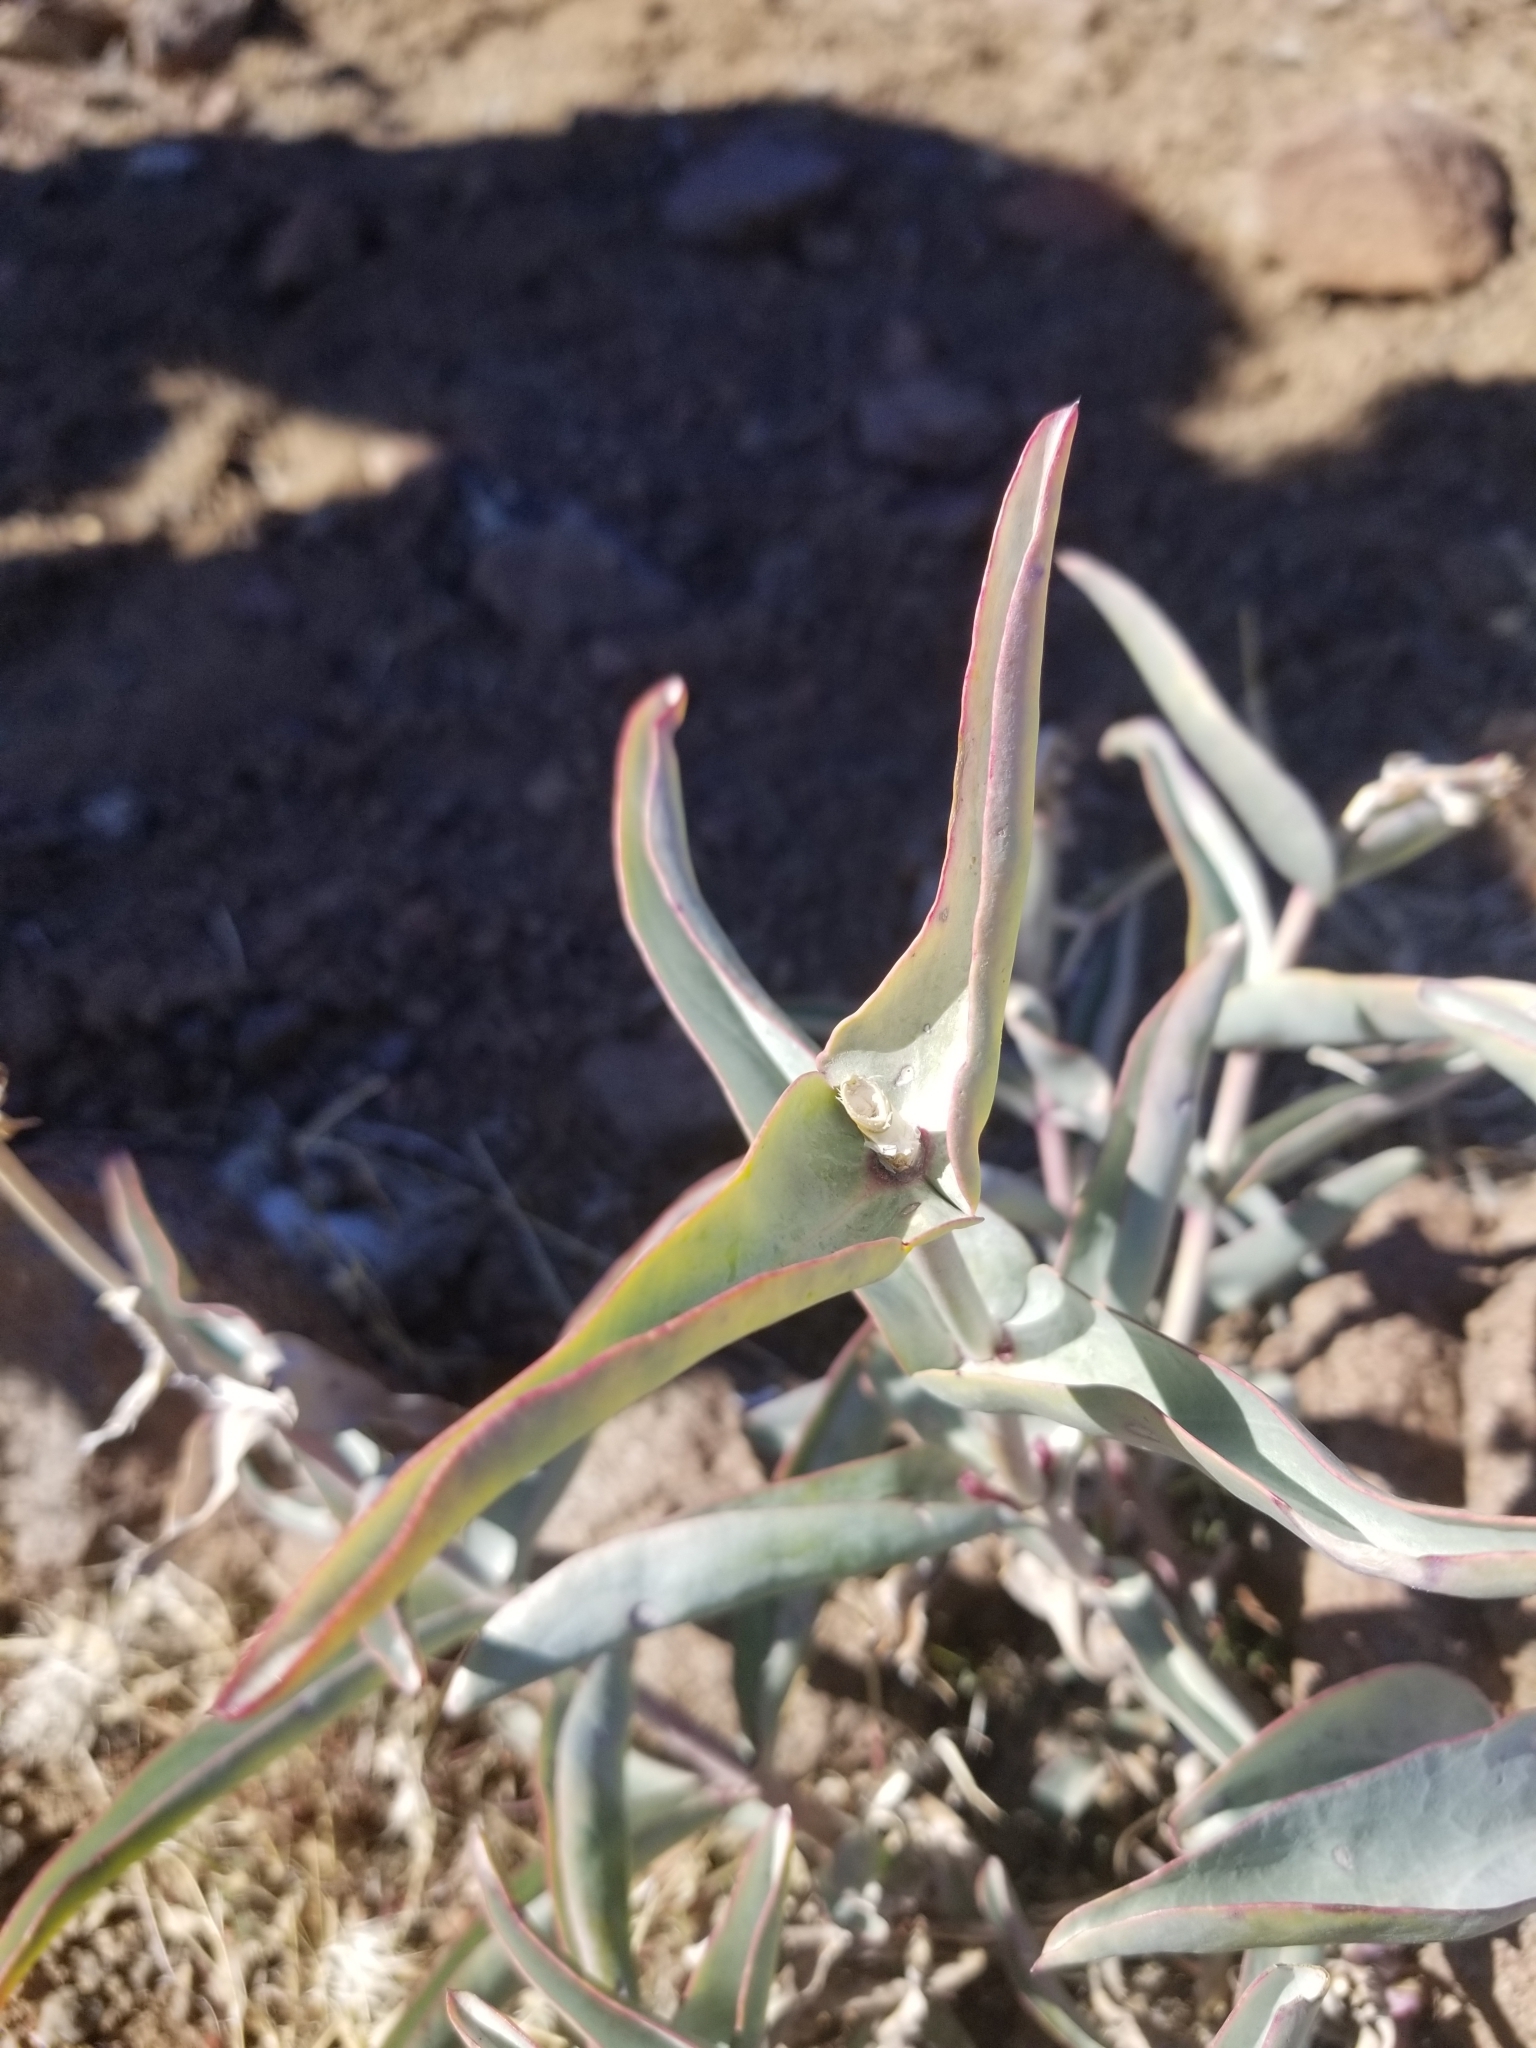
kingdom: Plantae
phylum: Tracheophyta
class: Magnoliopsida
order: Lamiales
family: Plantaginaceae
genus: Penstemon
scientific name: Penstemon centranthifolius
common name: Scarlet bugler
